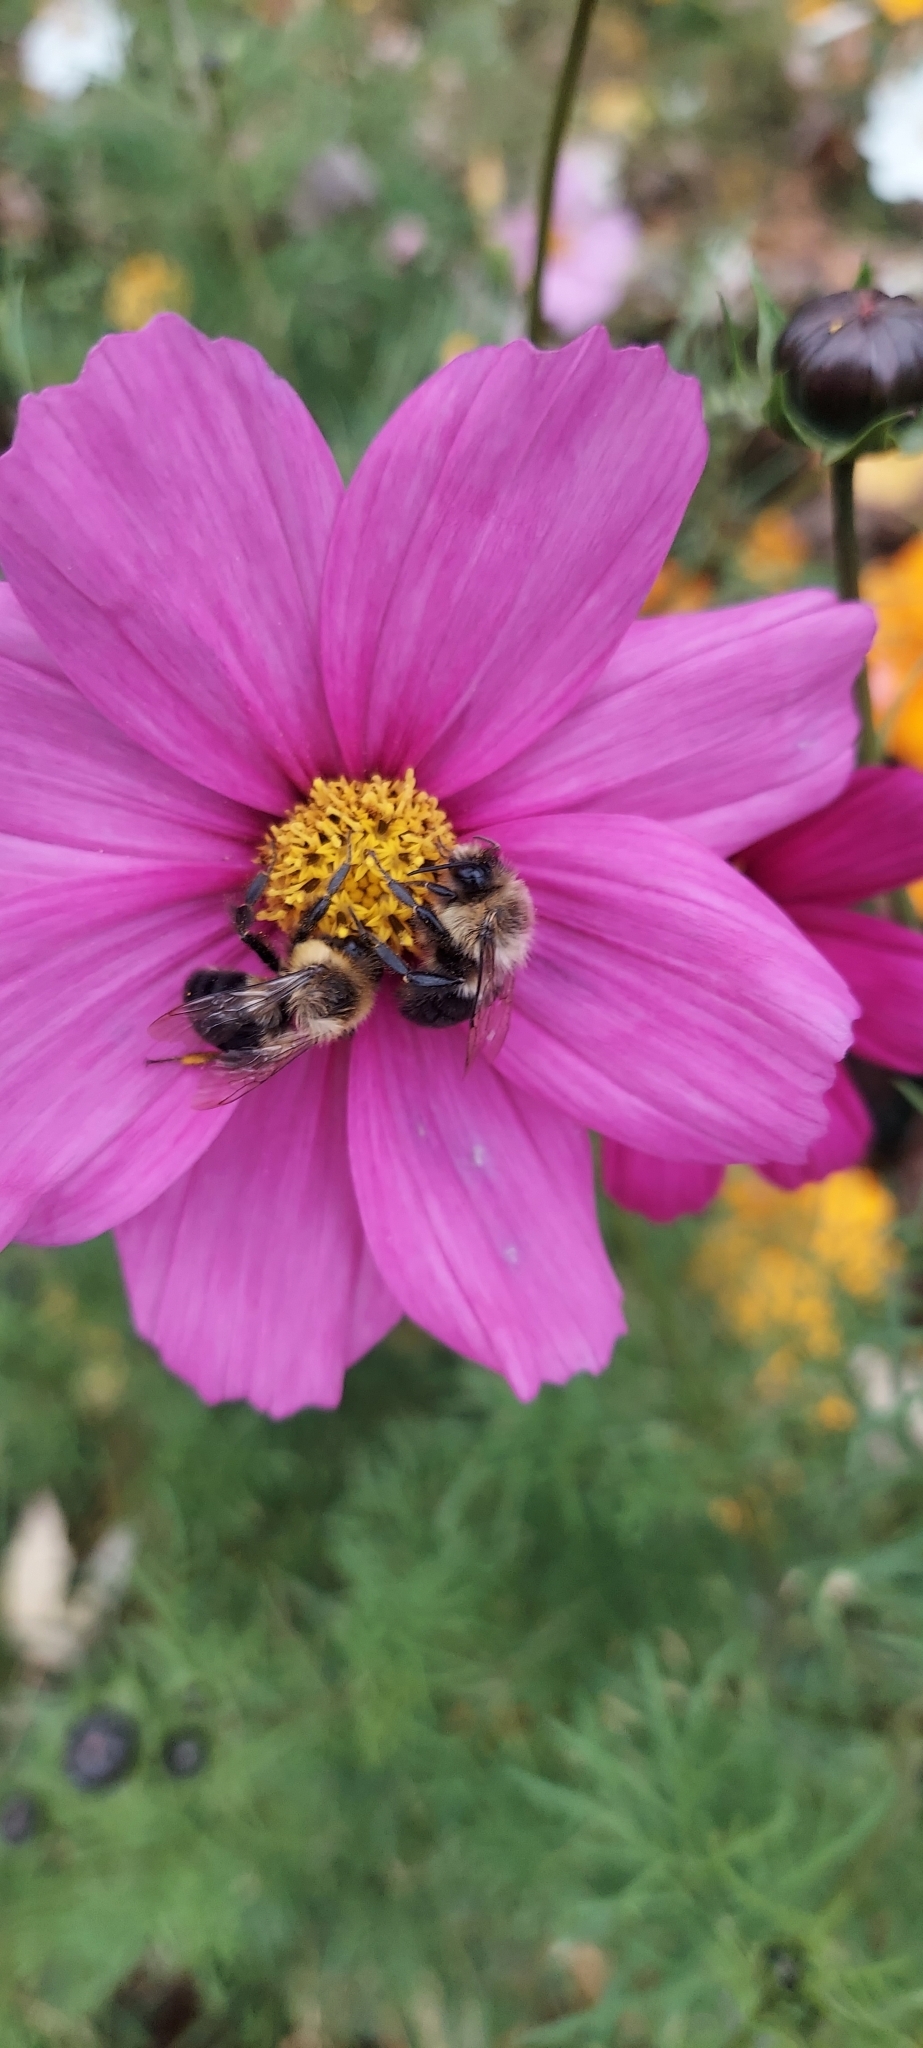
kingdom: Animalia
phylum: Arthropoda
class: Insecta
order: Hymenoptera
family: Apidae
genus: Bombus
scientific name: Bombus impatiens
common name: Common eastern bumble bee
